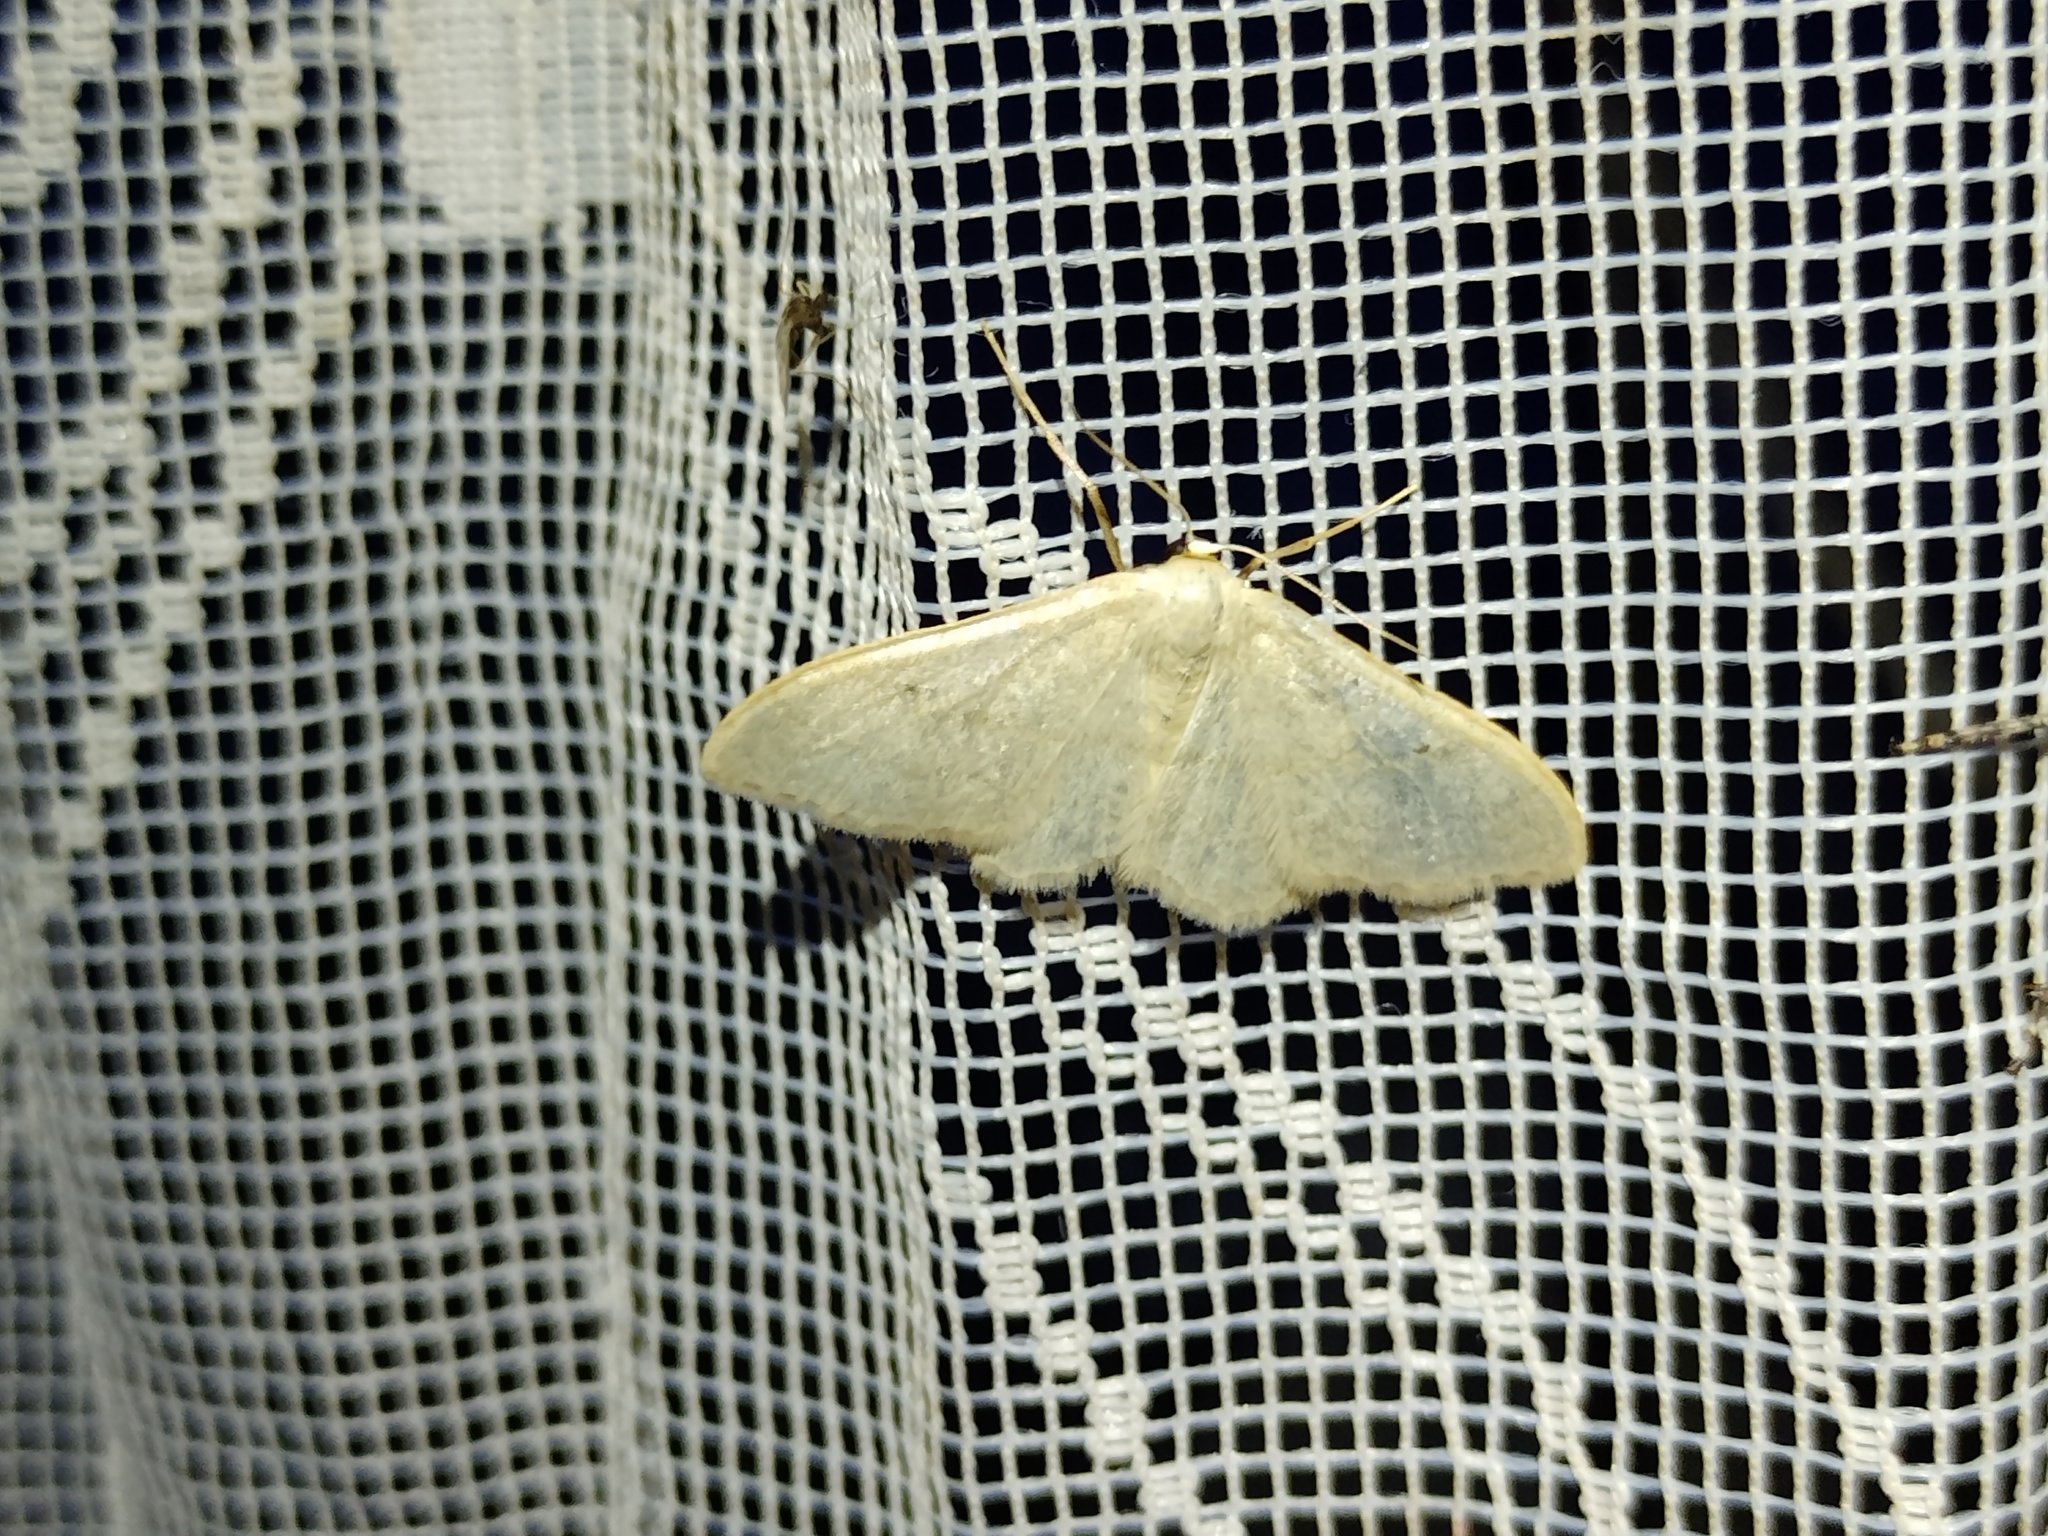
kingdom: Animalia
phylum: Arthropoda
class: Insecta
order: Lepidoptera
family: Geometridae
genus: Idaea
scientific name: Idaea straminata
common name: Plain wave
